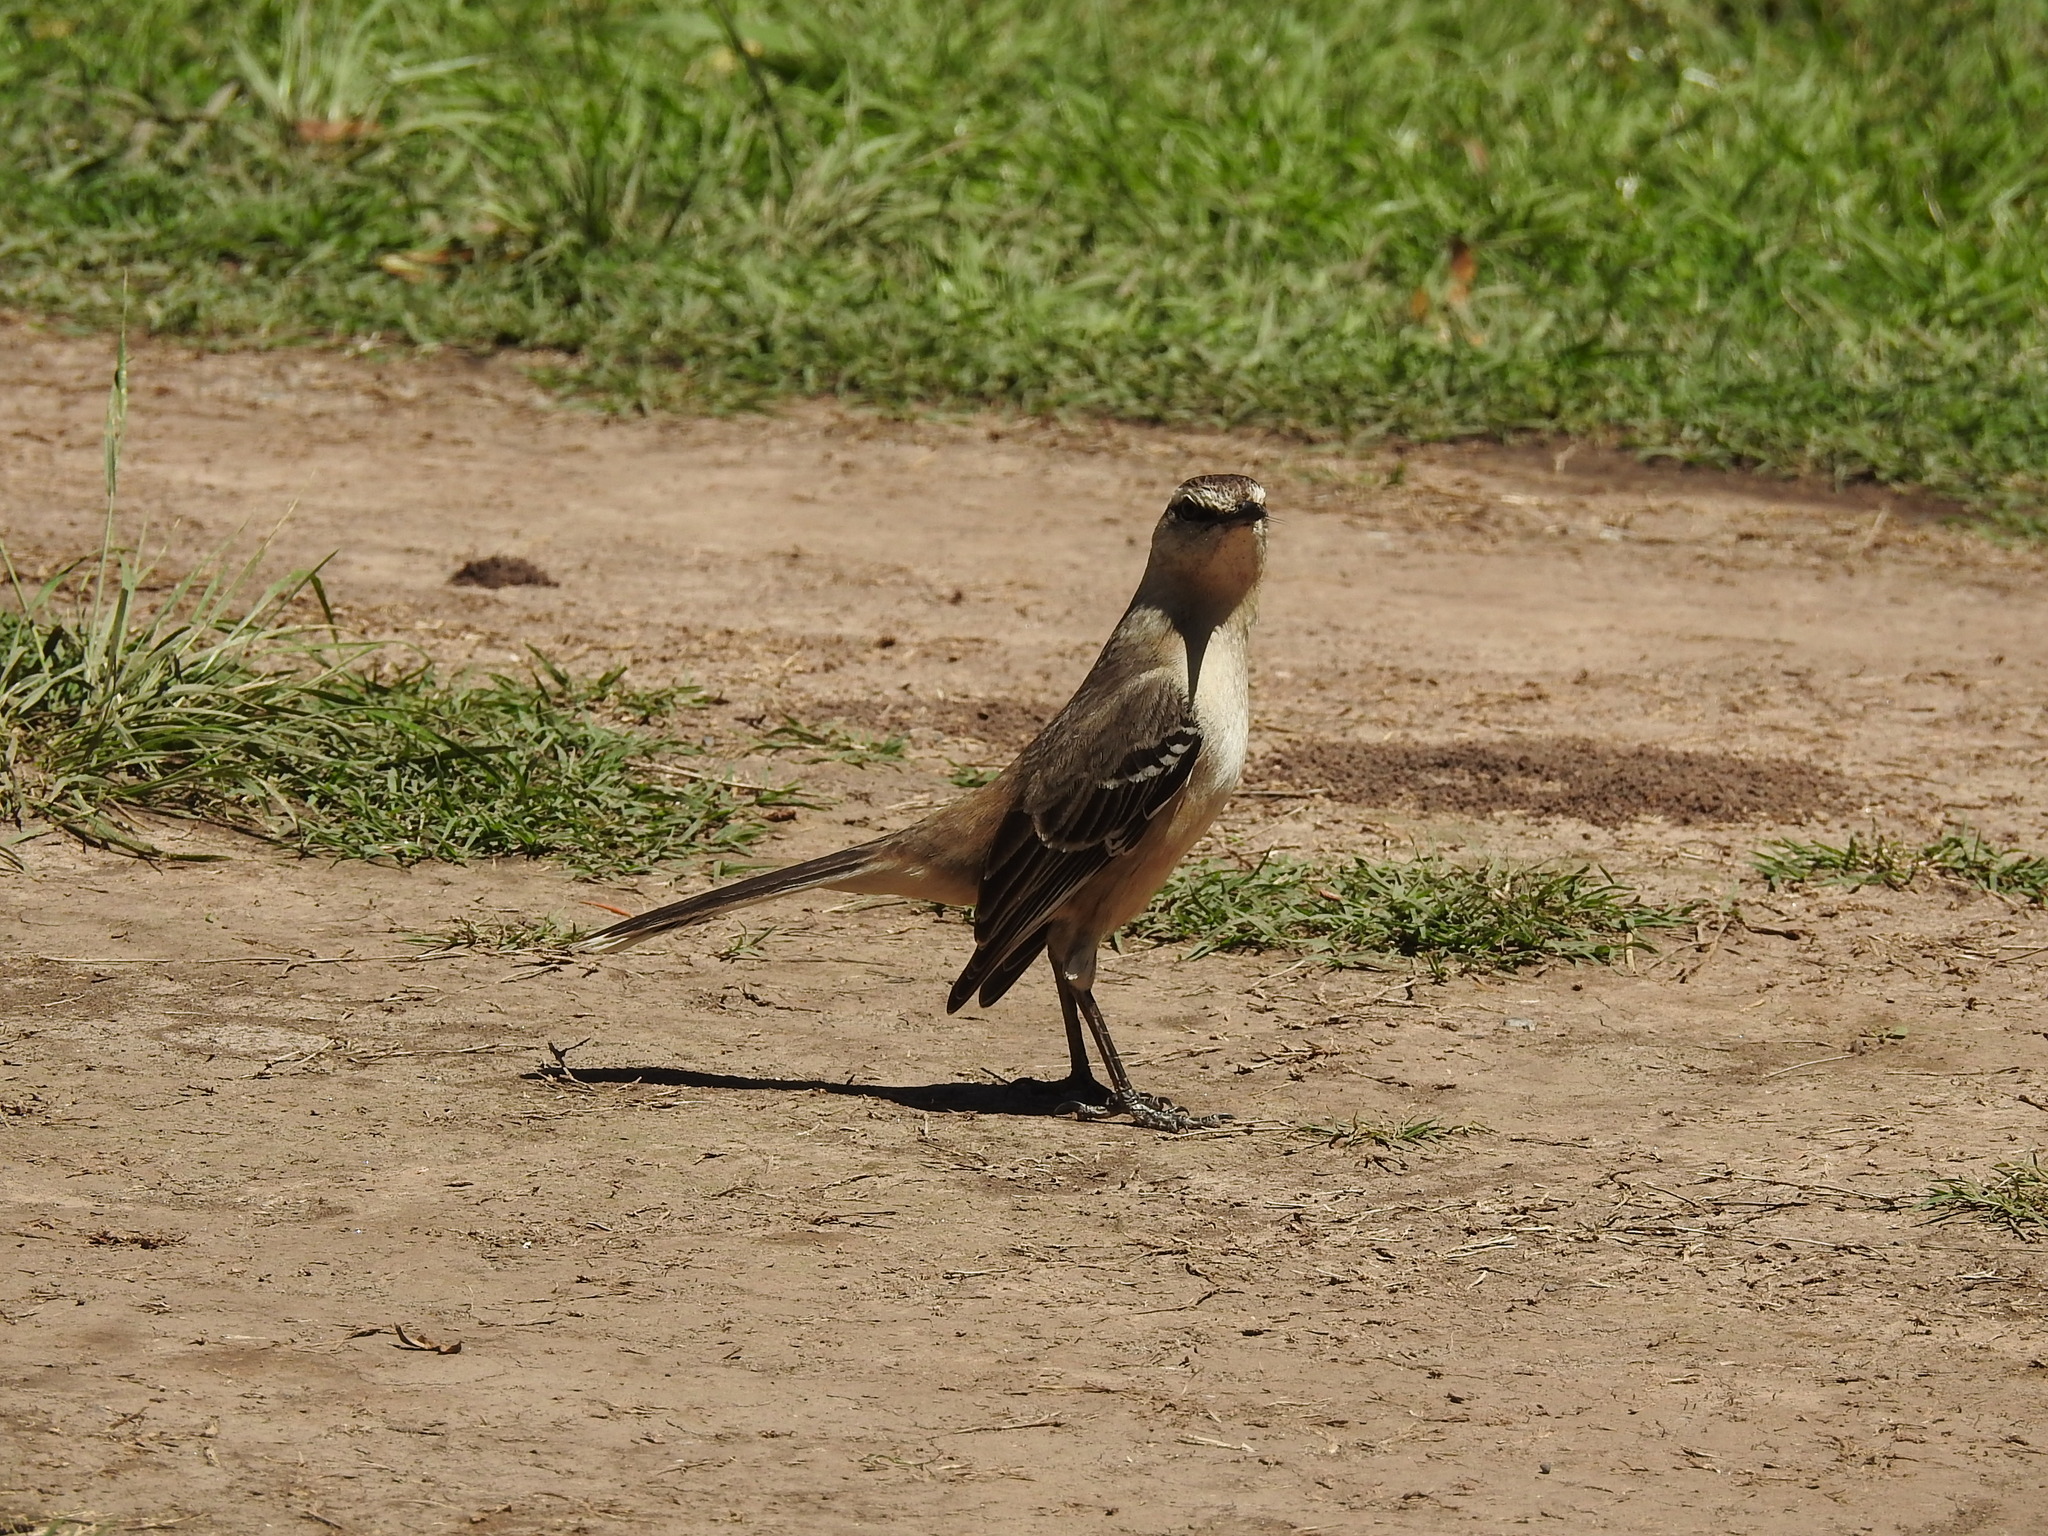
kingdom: Animalia
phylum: Chordata
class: Aves
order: Passeriformes
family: Mimidae
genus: Mimus
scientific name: Mimus saturninus
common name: Chalk-browed mockingbird
